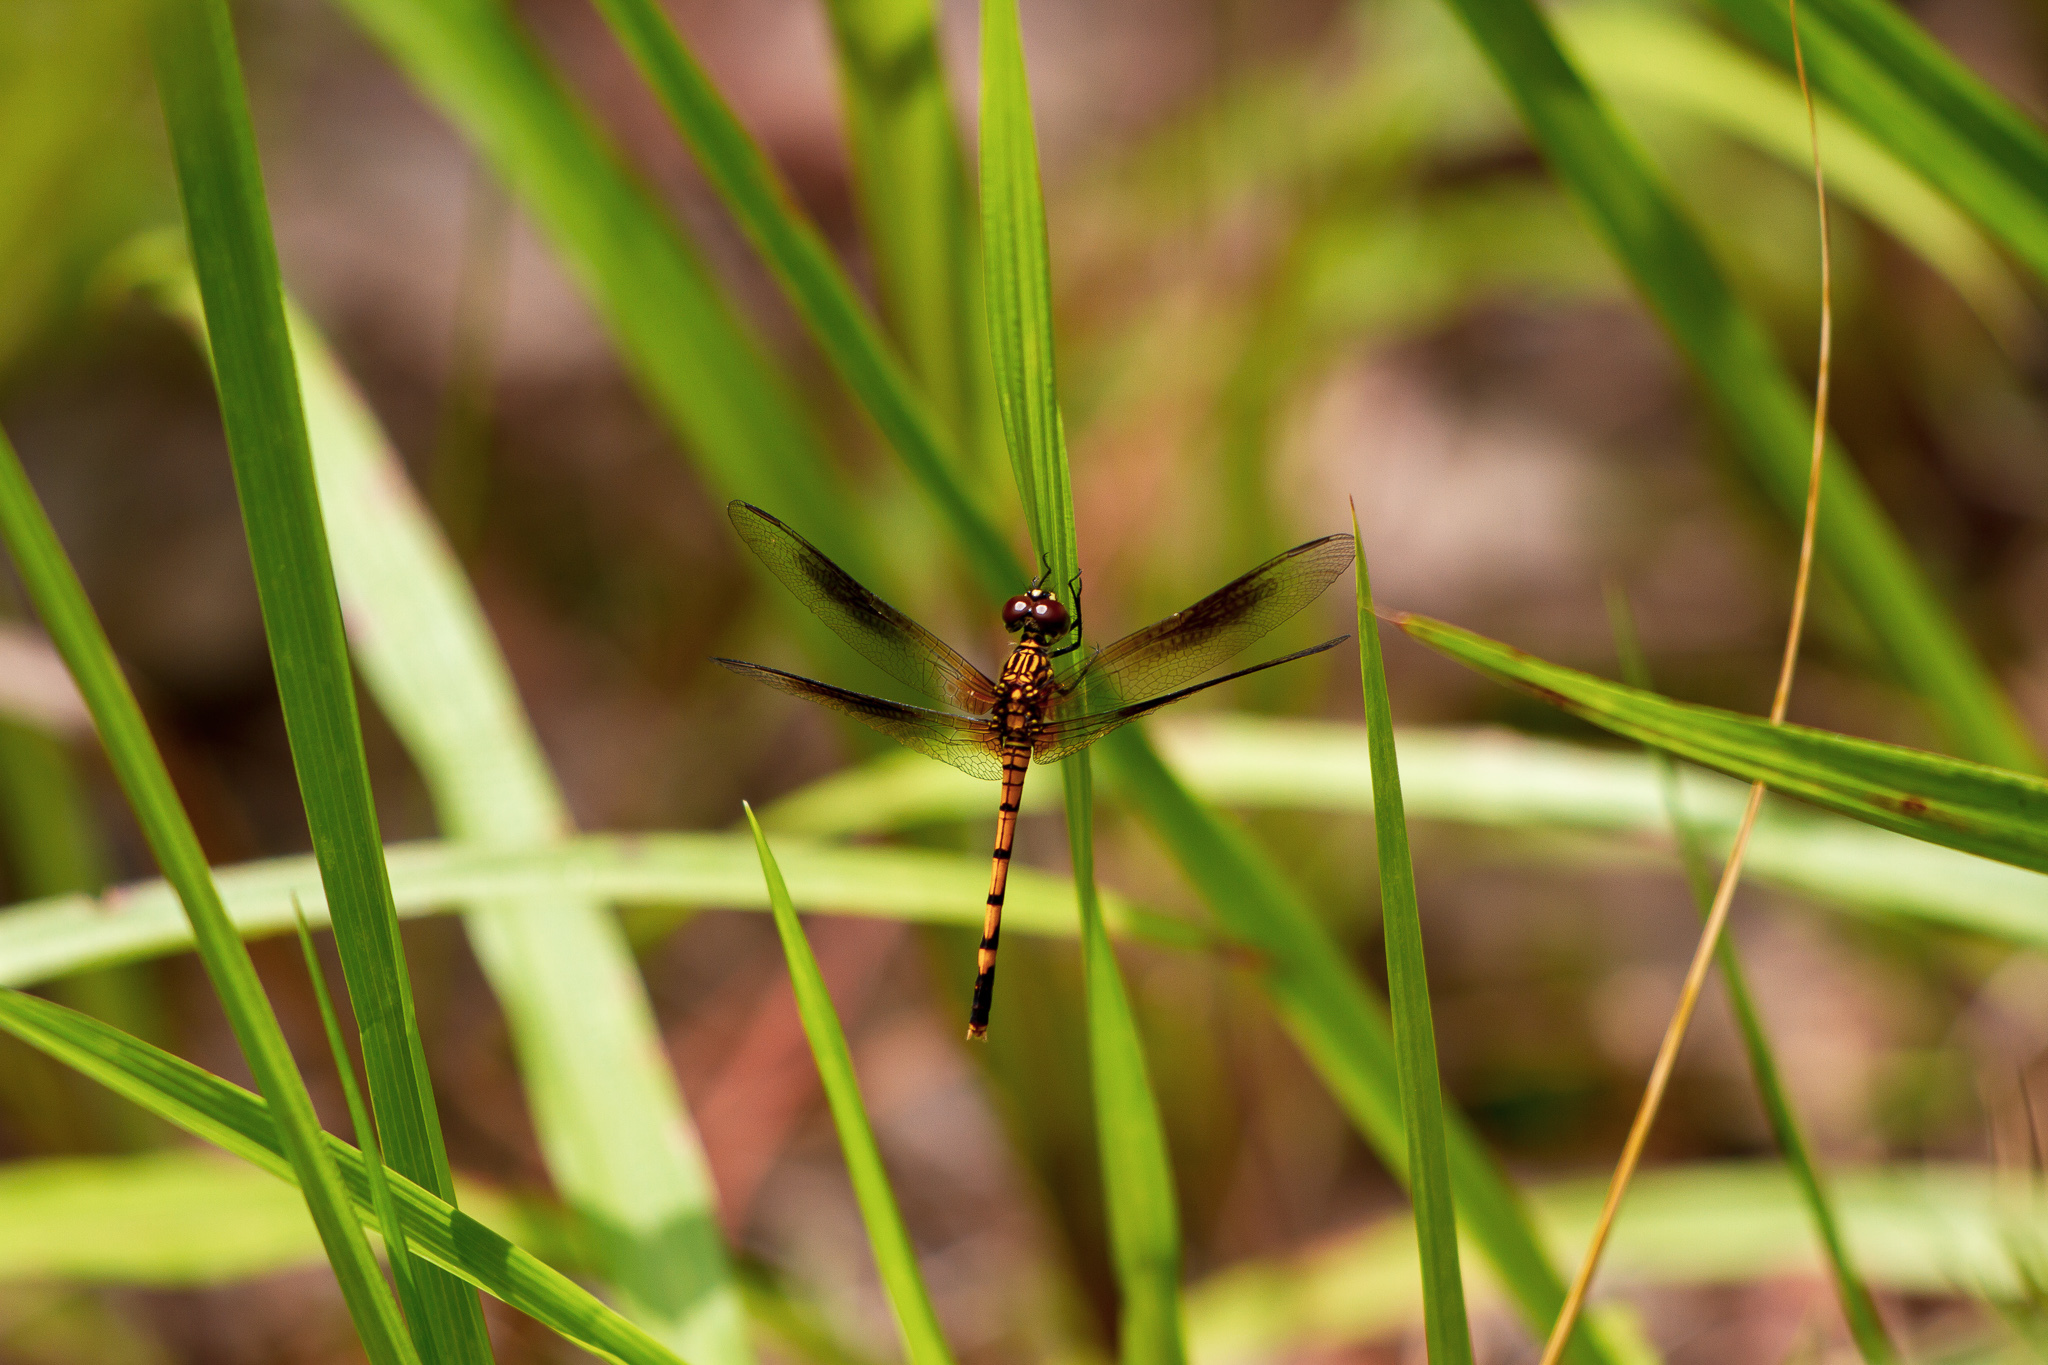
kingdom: Animalia
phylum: Arthropoda
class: Insecta
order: Odonata
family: Libellulidae
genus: Erythrodiplax
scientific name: Erythrodiplax berenice
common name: Seaside dragonlet
